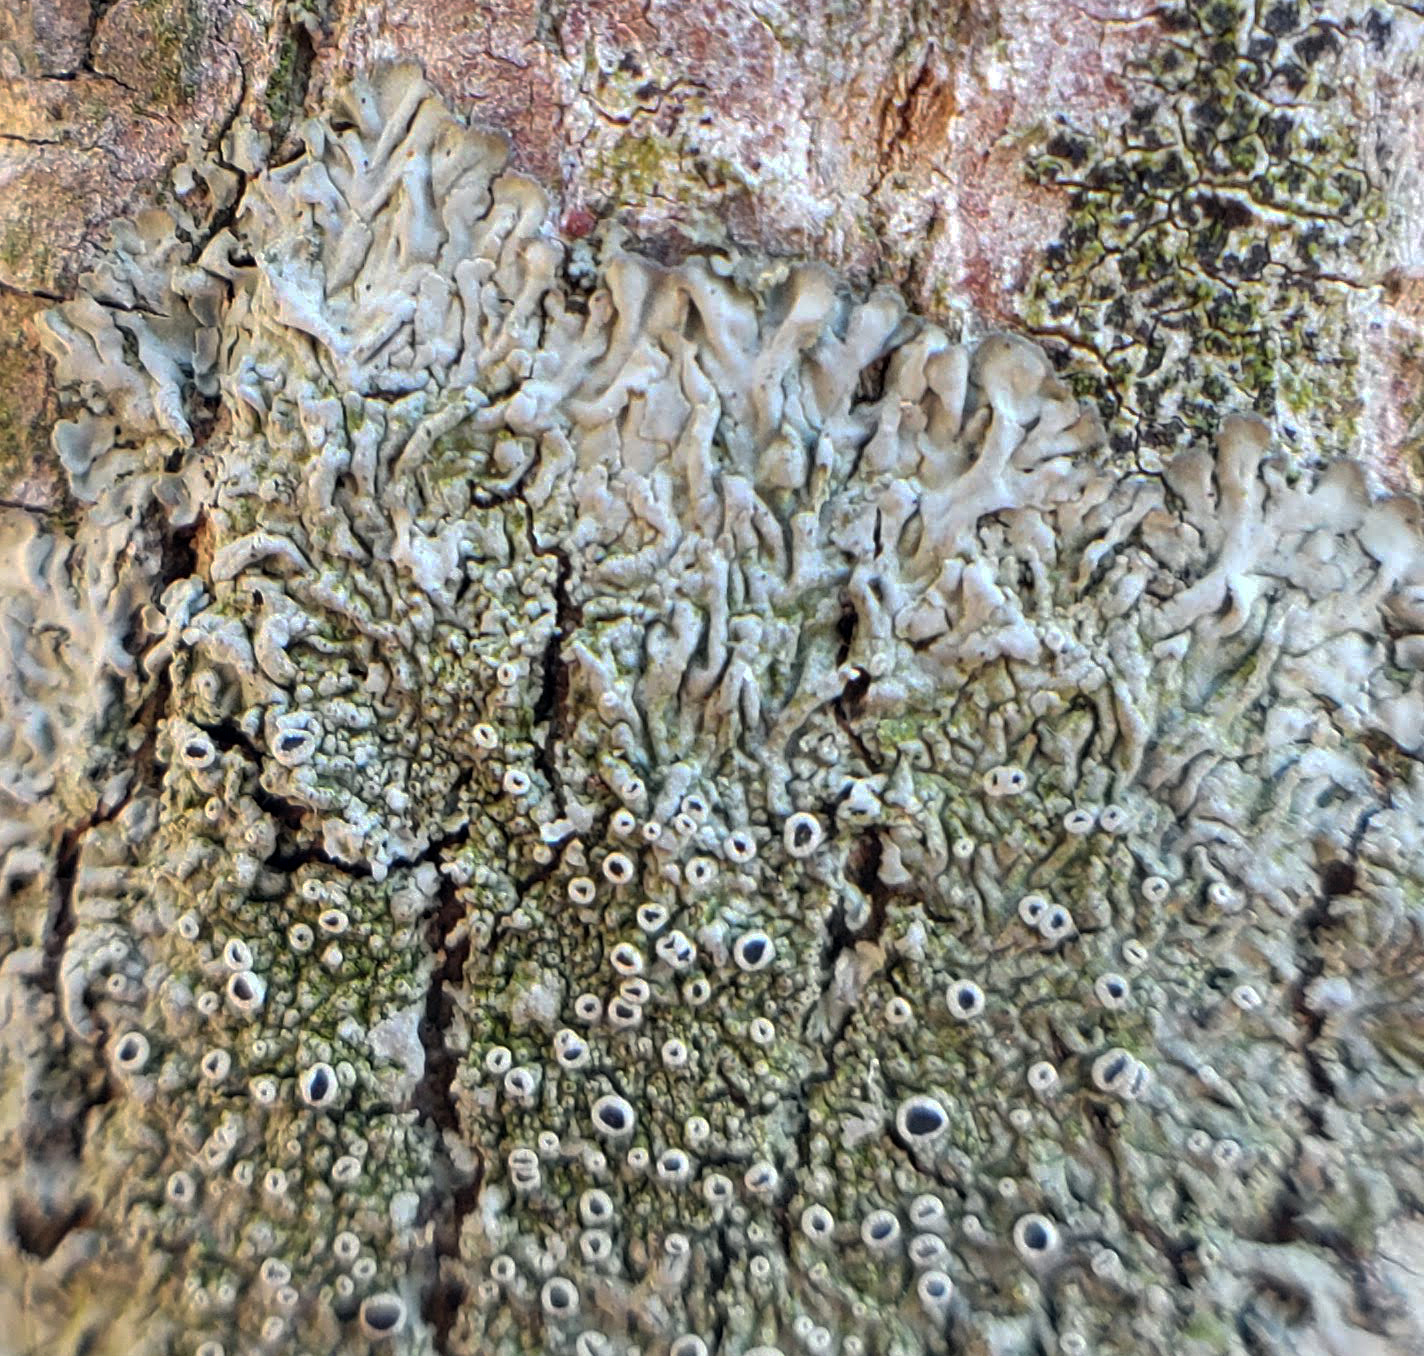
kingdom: Fungi
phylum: Ascomycota
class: Lecanoromycetes
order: Caliciales
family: Physciaceae
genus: Hyperphyscia
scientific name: Hyperphyscia syncolla
